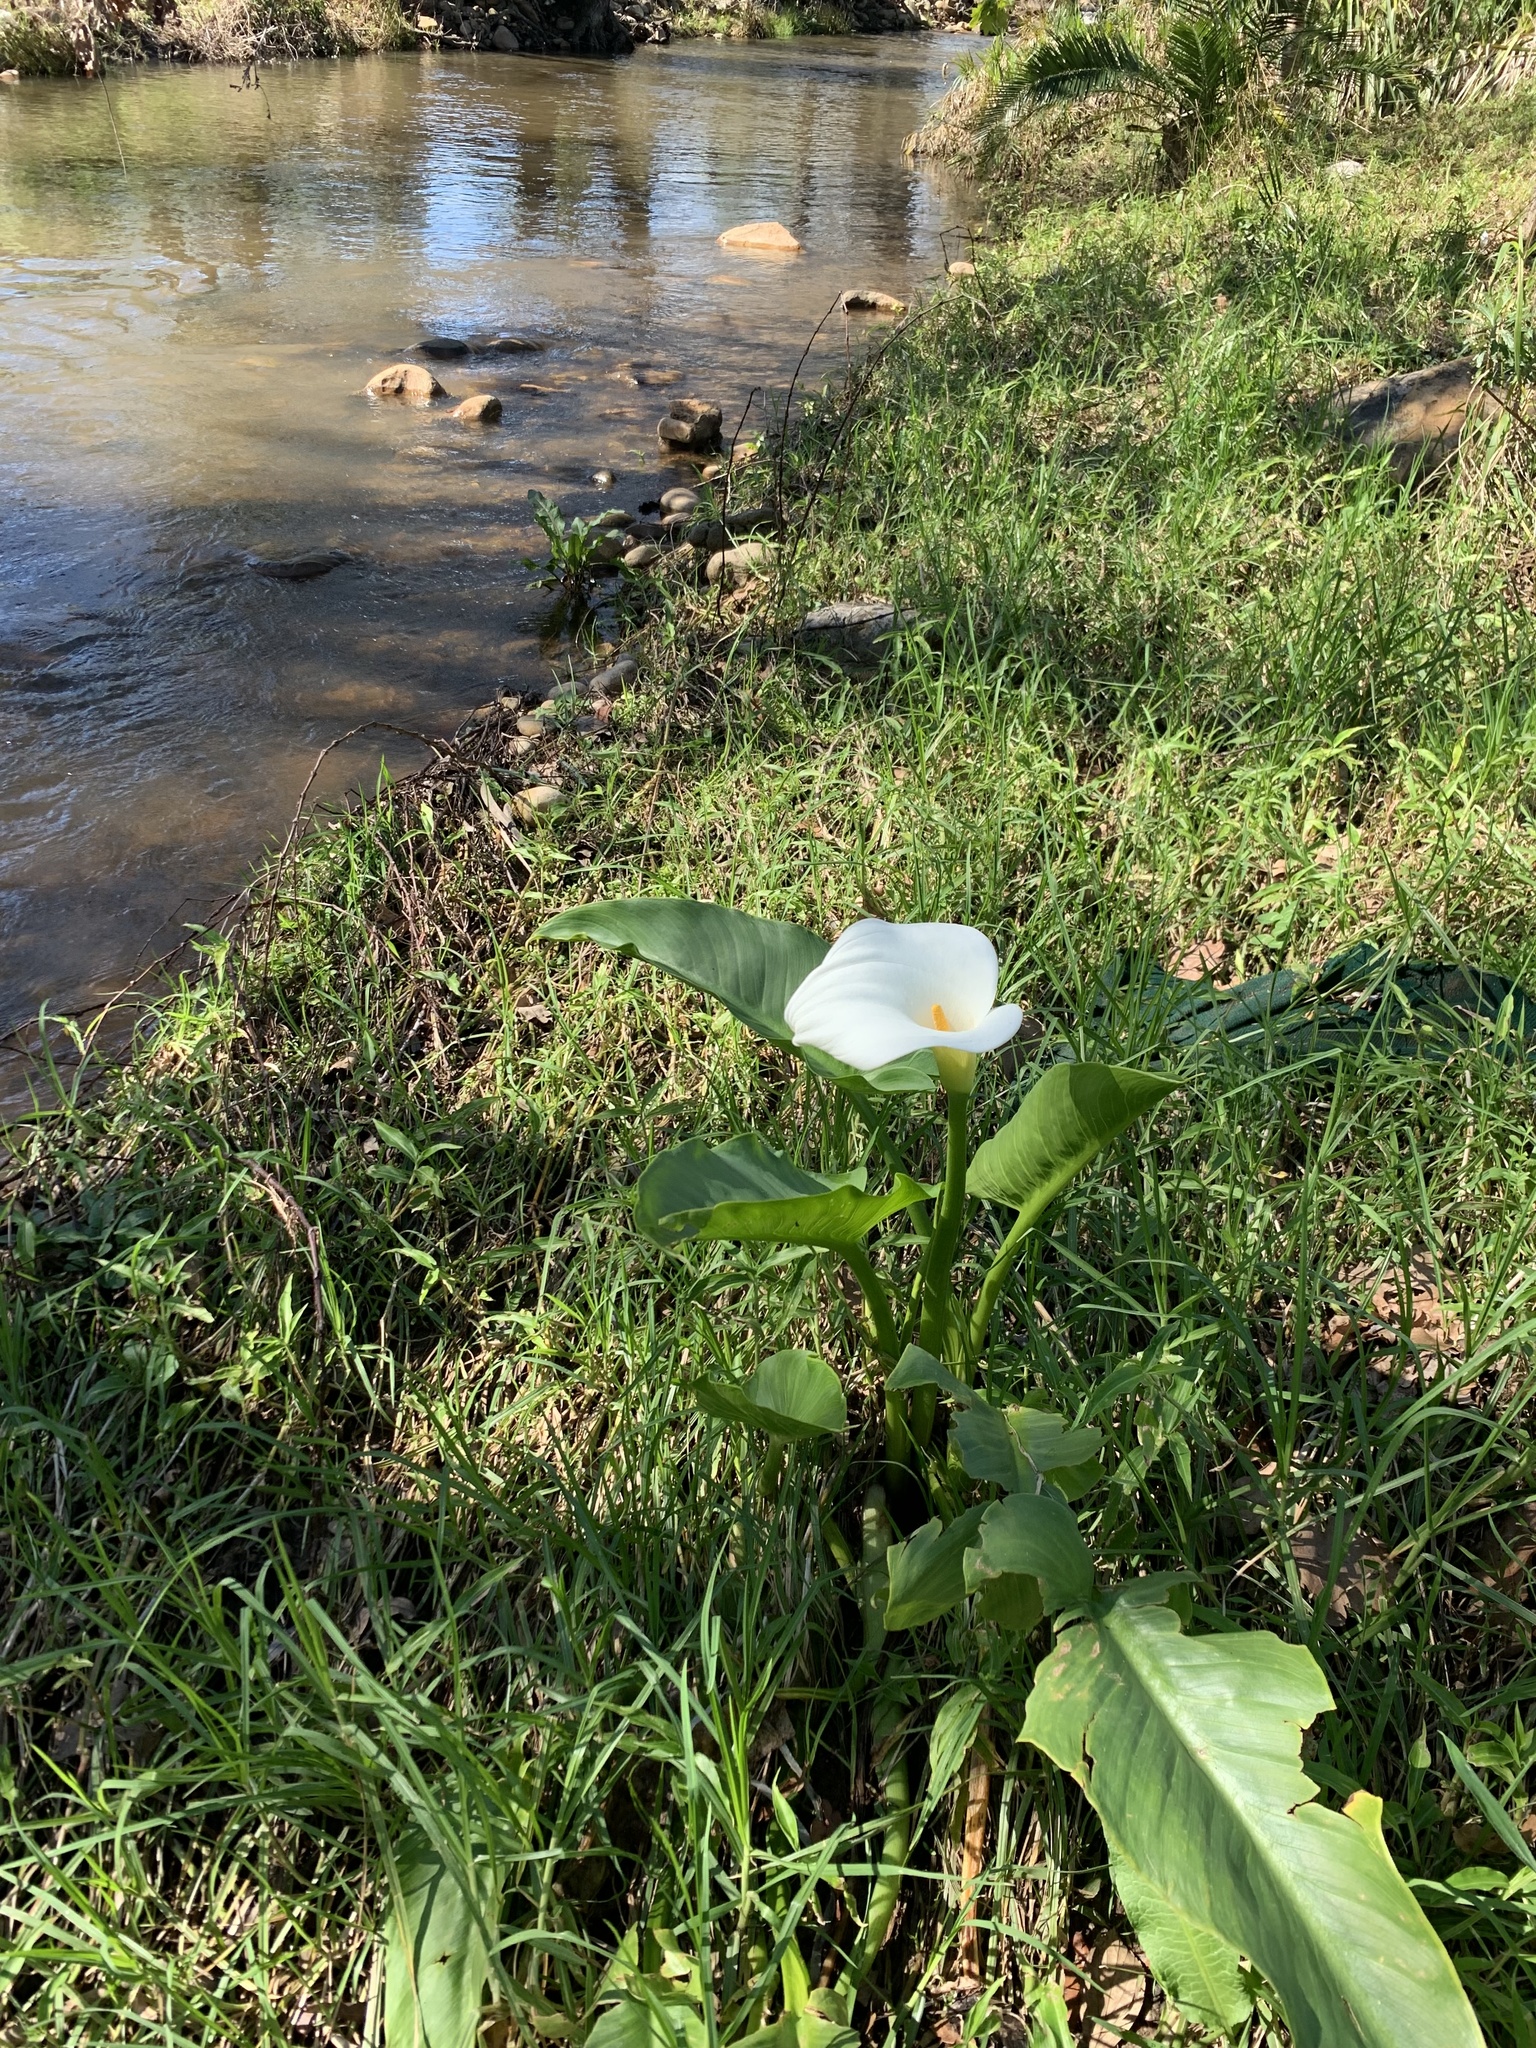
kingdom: Plantae
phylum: Tracheophyta
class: Liliopsida
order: Alismatales
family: Araceae
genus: Zantedeschia
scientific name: Zantedeschia aethiopica
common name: Altar-lily
